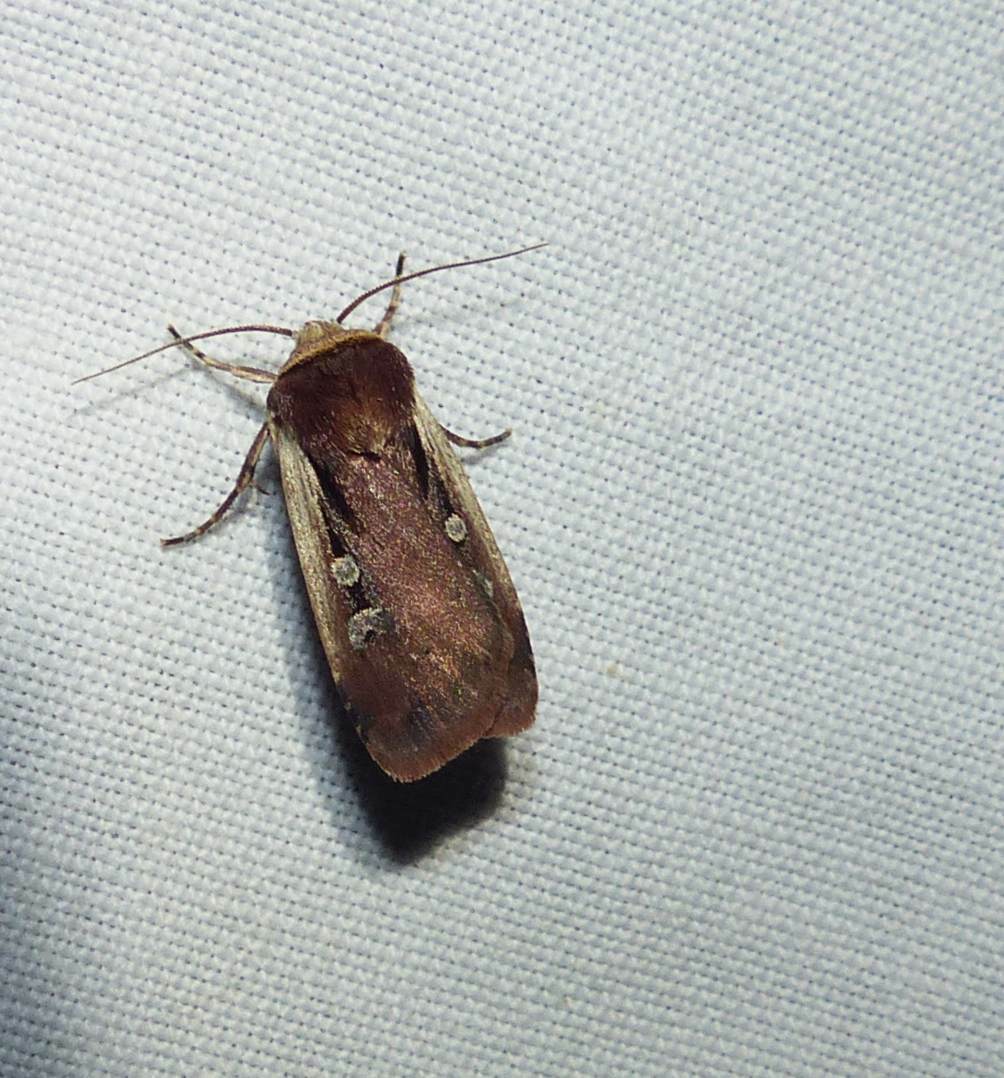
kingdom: Animalia
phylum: Arthropoda
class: Insecta
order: Lepidoptera
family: Noctuidae
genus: Ochropleura
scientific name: Ochropleura implecta
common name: Flame-shouldered dart
